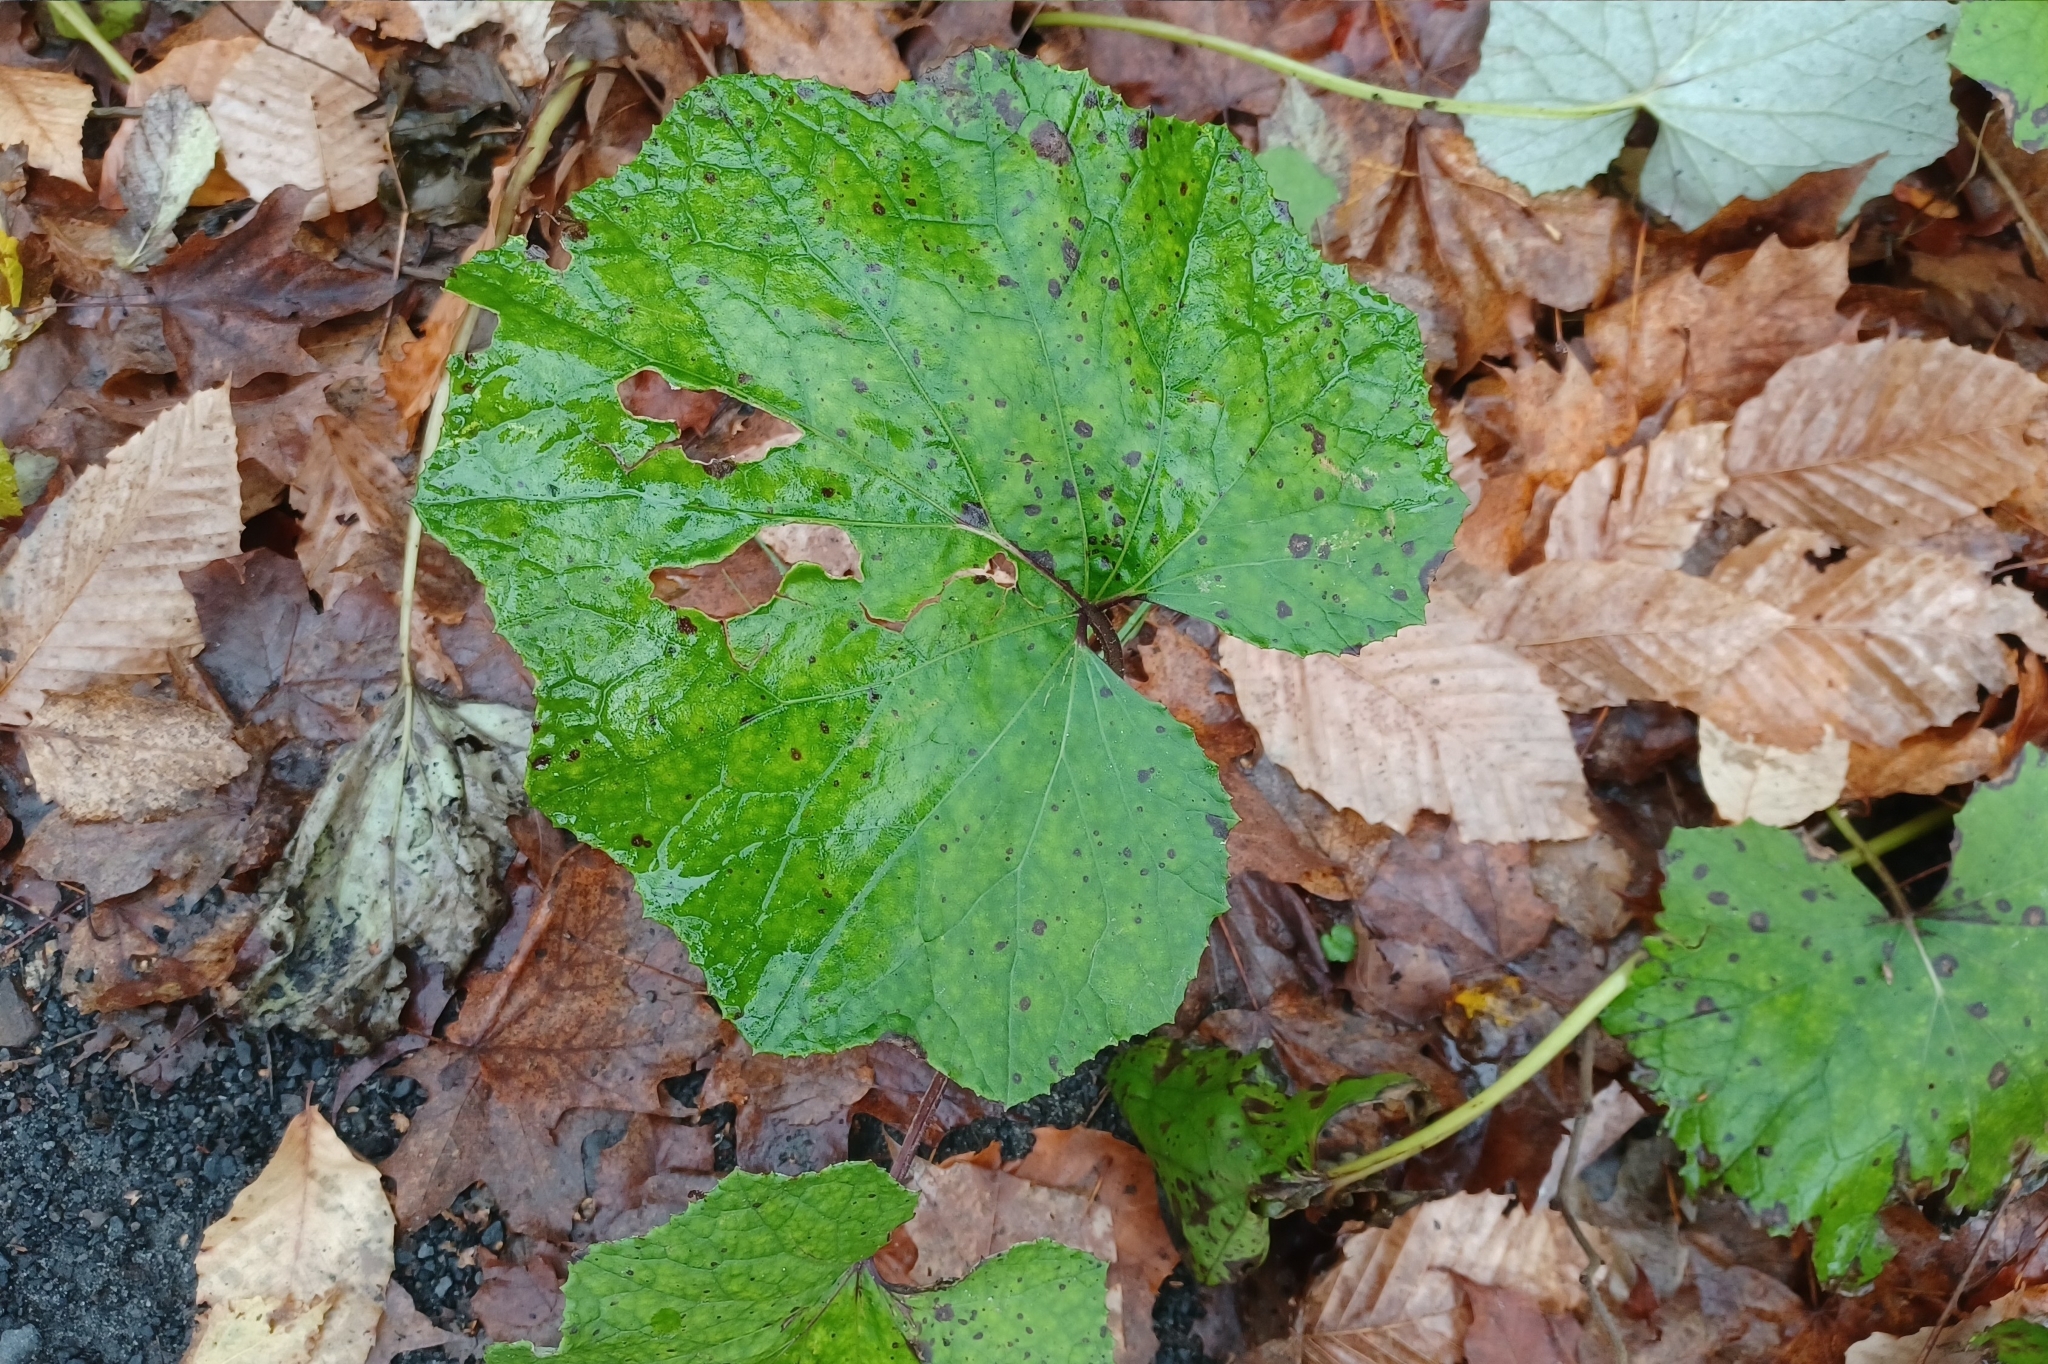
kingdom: Plantae
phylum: Tracheophyta
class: Magnoliopsida
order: Asterales
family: Asteraceae
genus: Tussilago
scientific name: Tussilago farfara
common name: Coltsfoot
